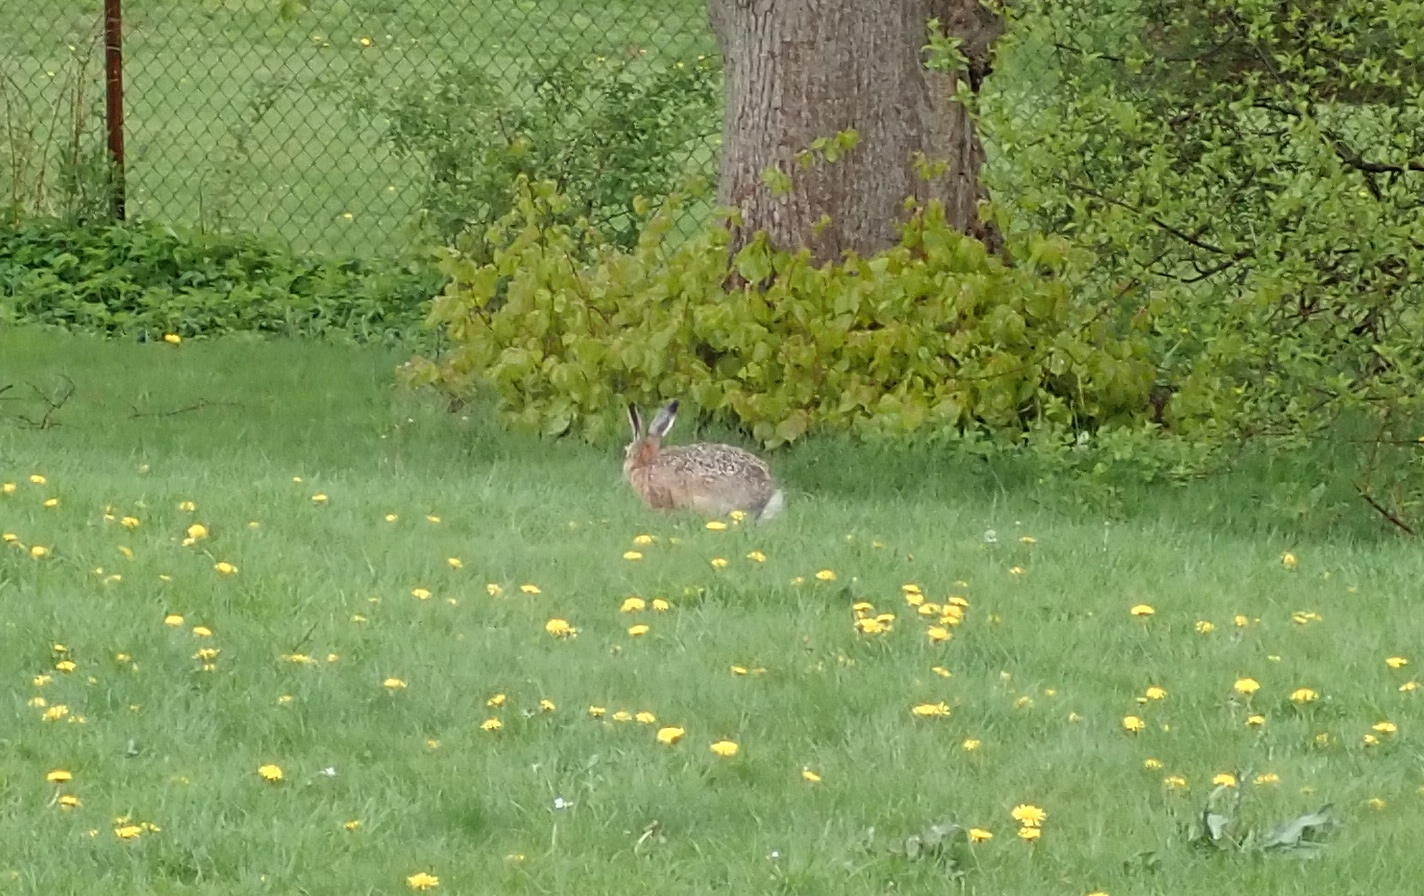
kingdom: Animalia
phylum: Chordata
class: Mammalia
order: Lagomorpha
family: Leporidae
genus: Lepus
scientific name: Lepus europaeus
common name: European hare
